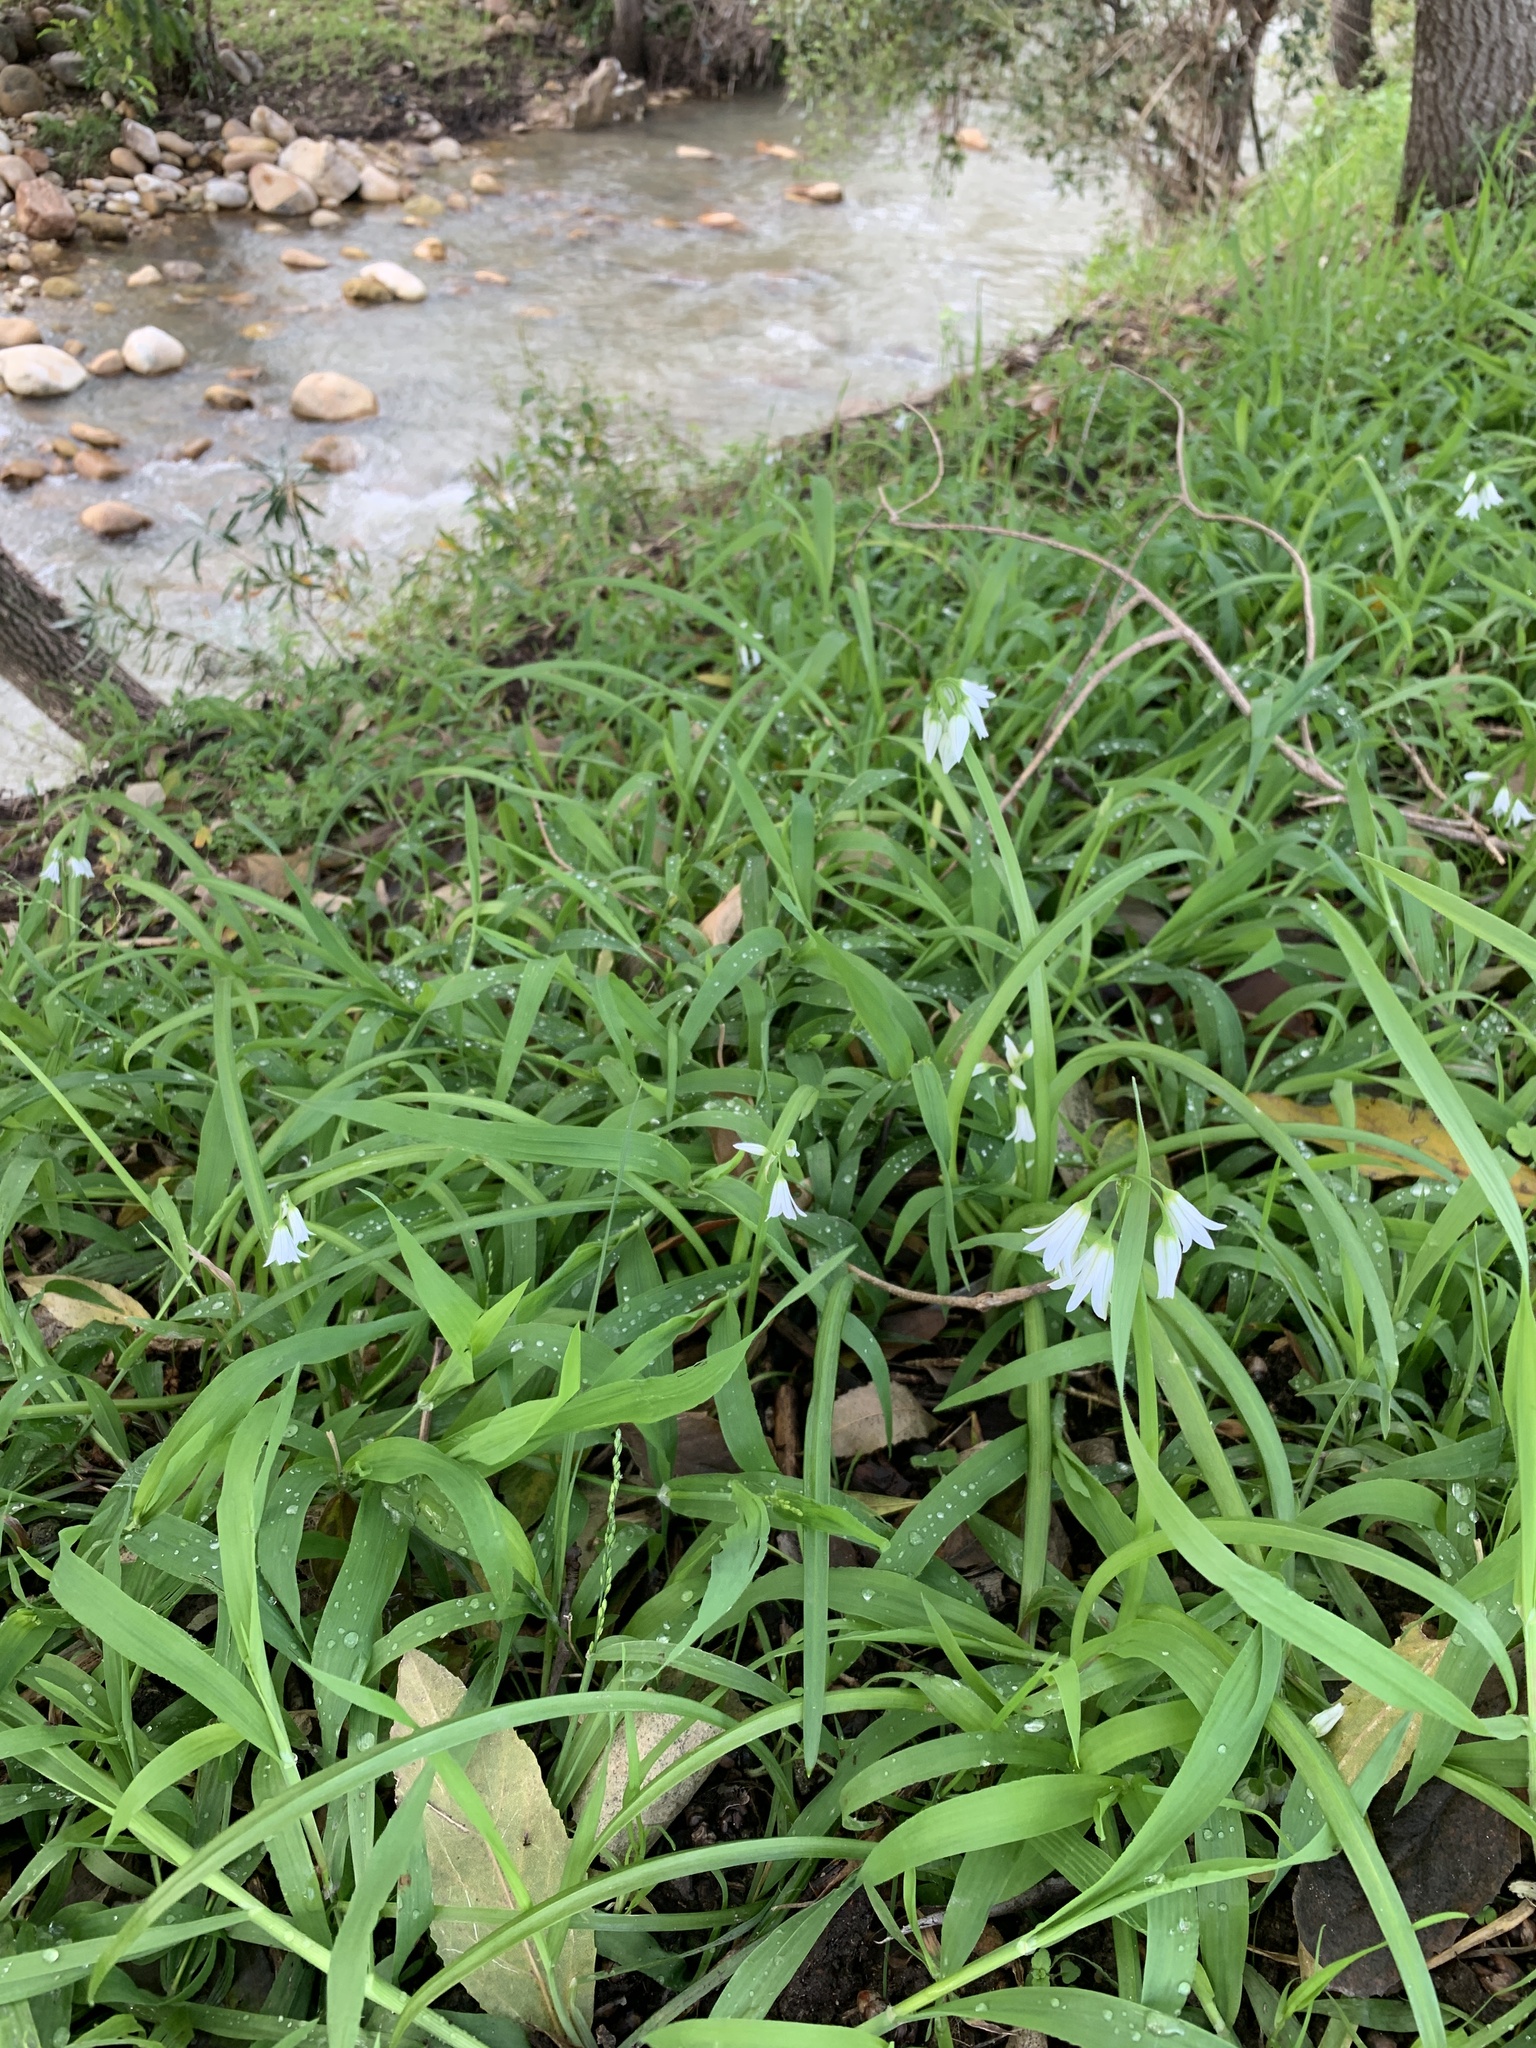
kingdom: Plantae
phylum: Tracheophyta
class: Liliopsida
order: Asparagales
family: Amaryllidaceae
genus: Allium
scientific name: Allium triquetrum
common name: Three-cornered garlic
